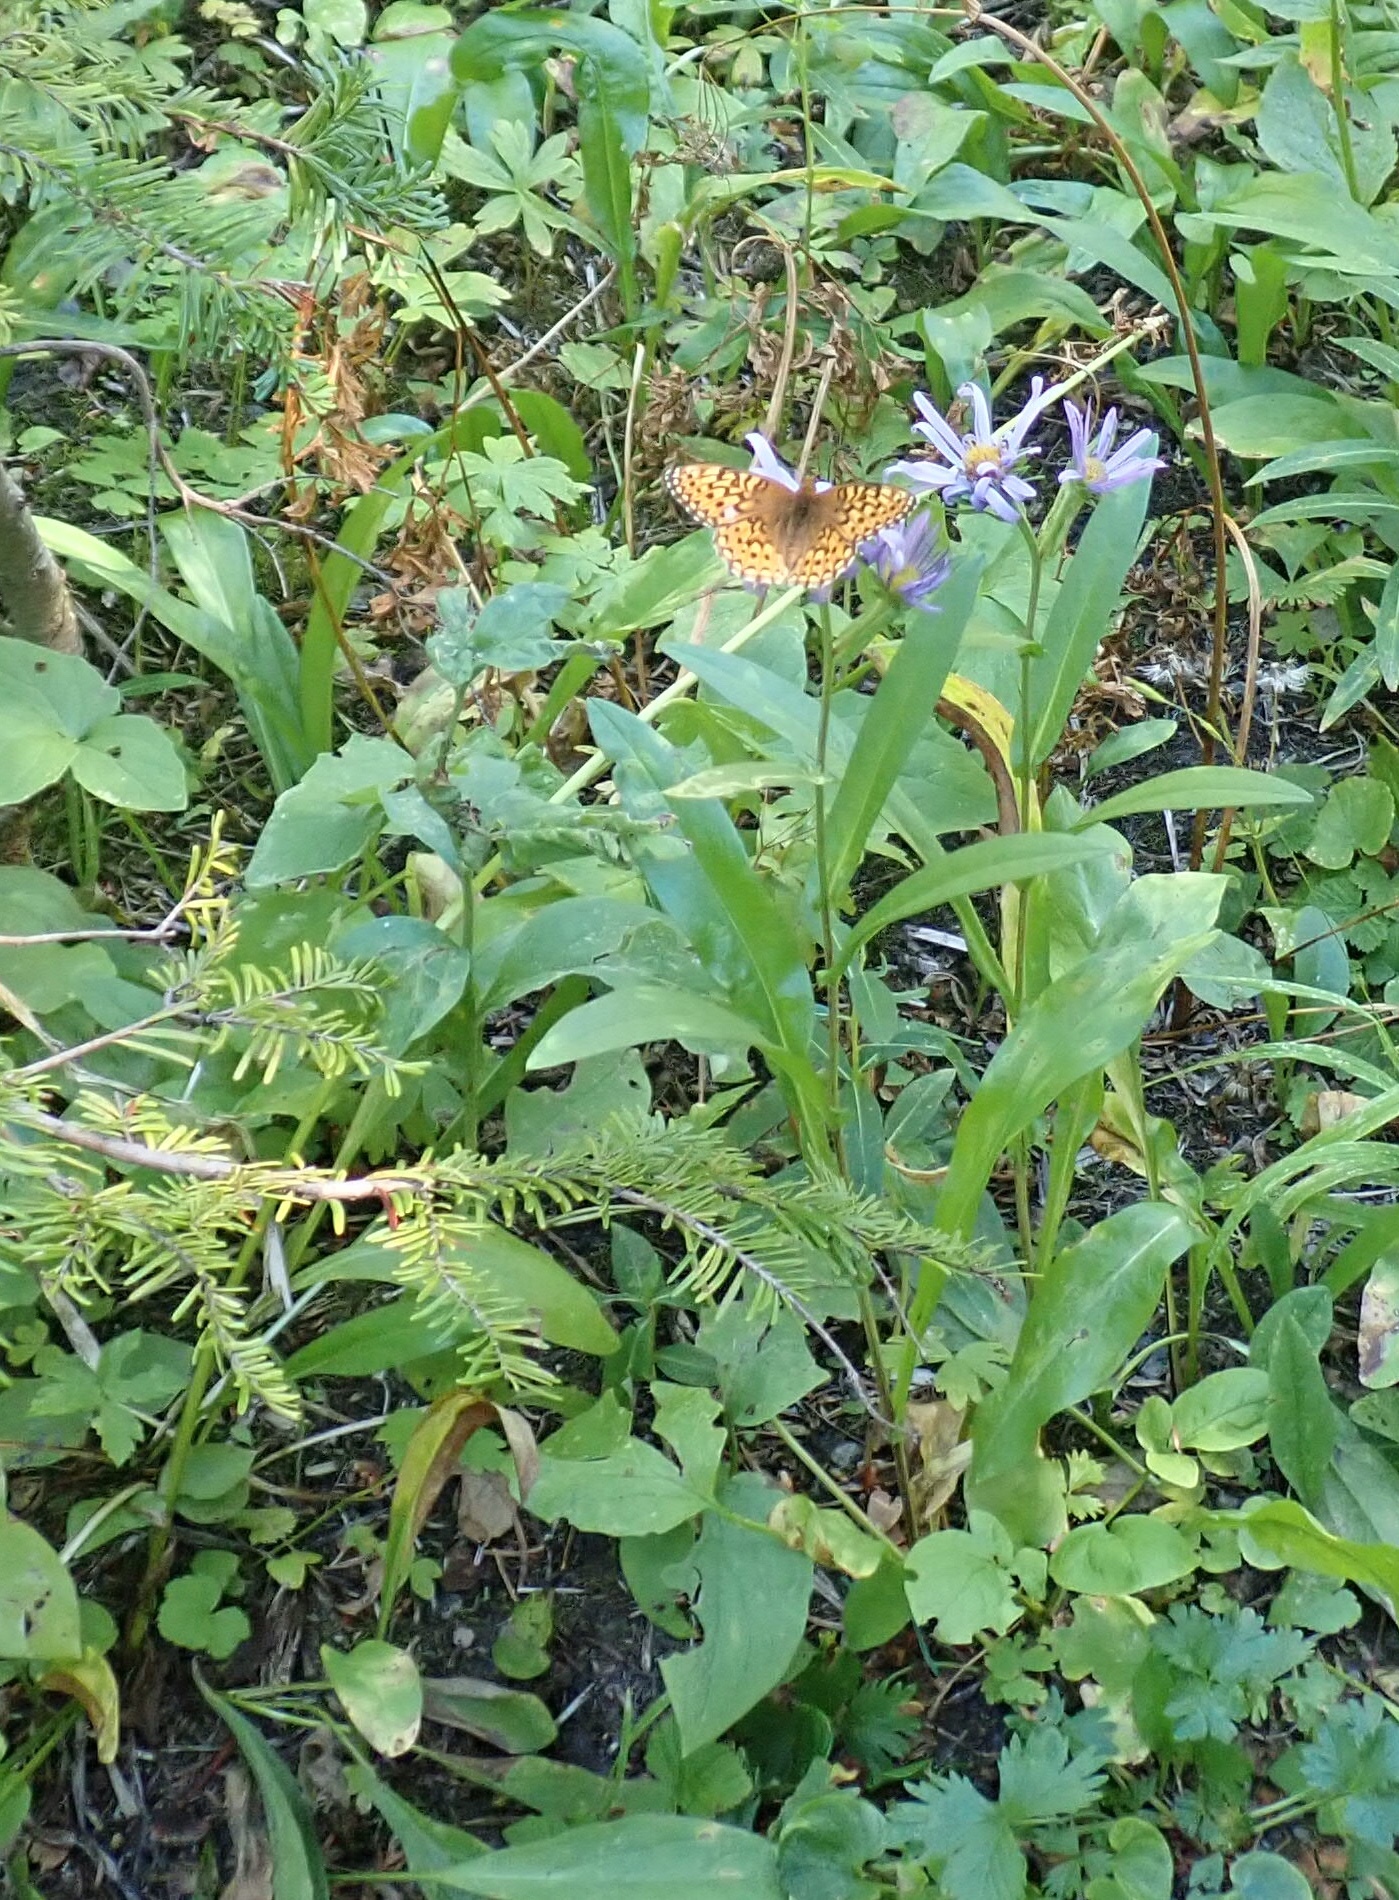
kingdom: Animalia
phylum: Arthropoda
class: Insecta
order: Lepidoptera
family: Nymphalidae
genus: Speyeria
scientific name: Speyeria mormonia
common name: Mormon fritillary
